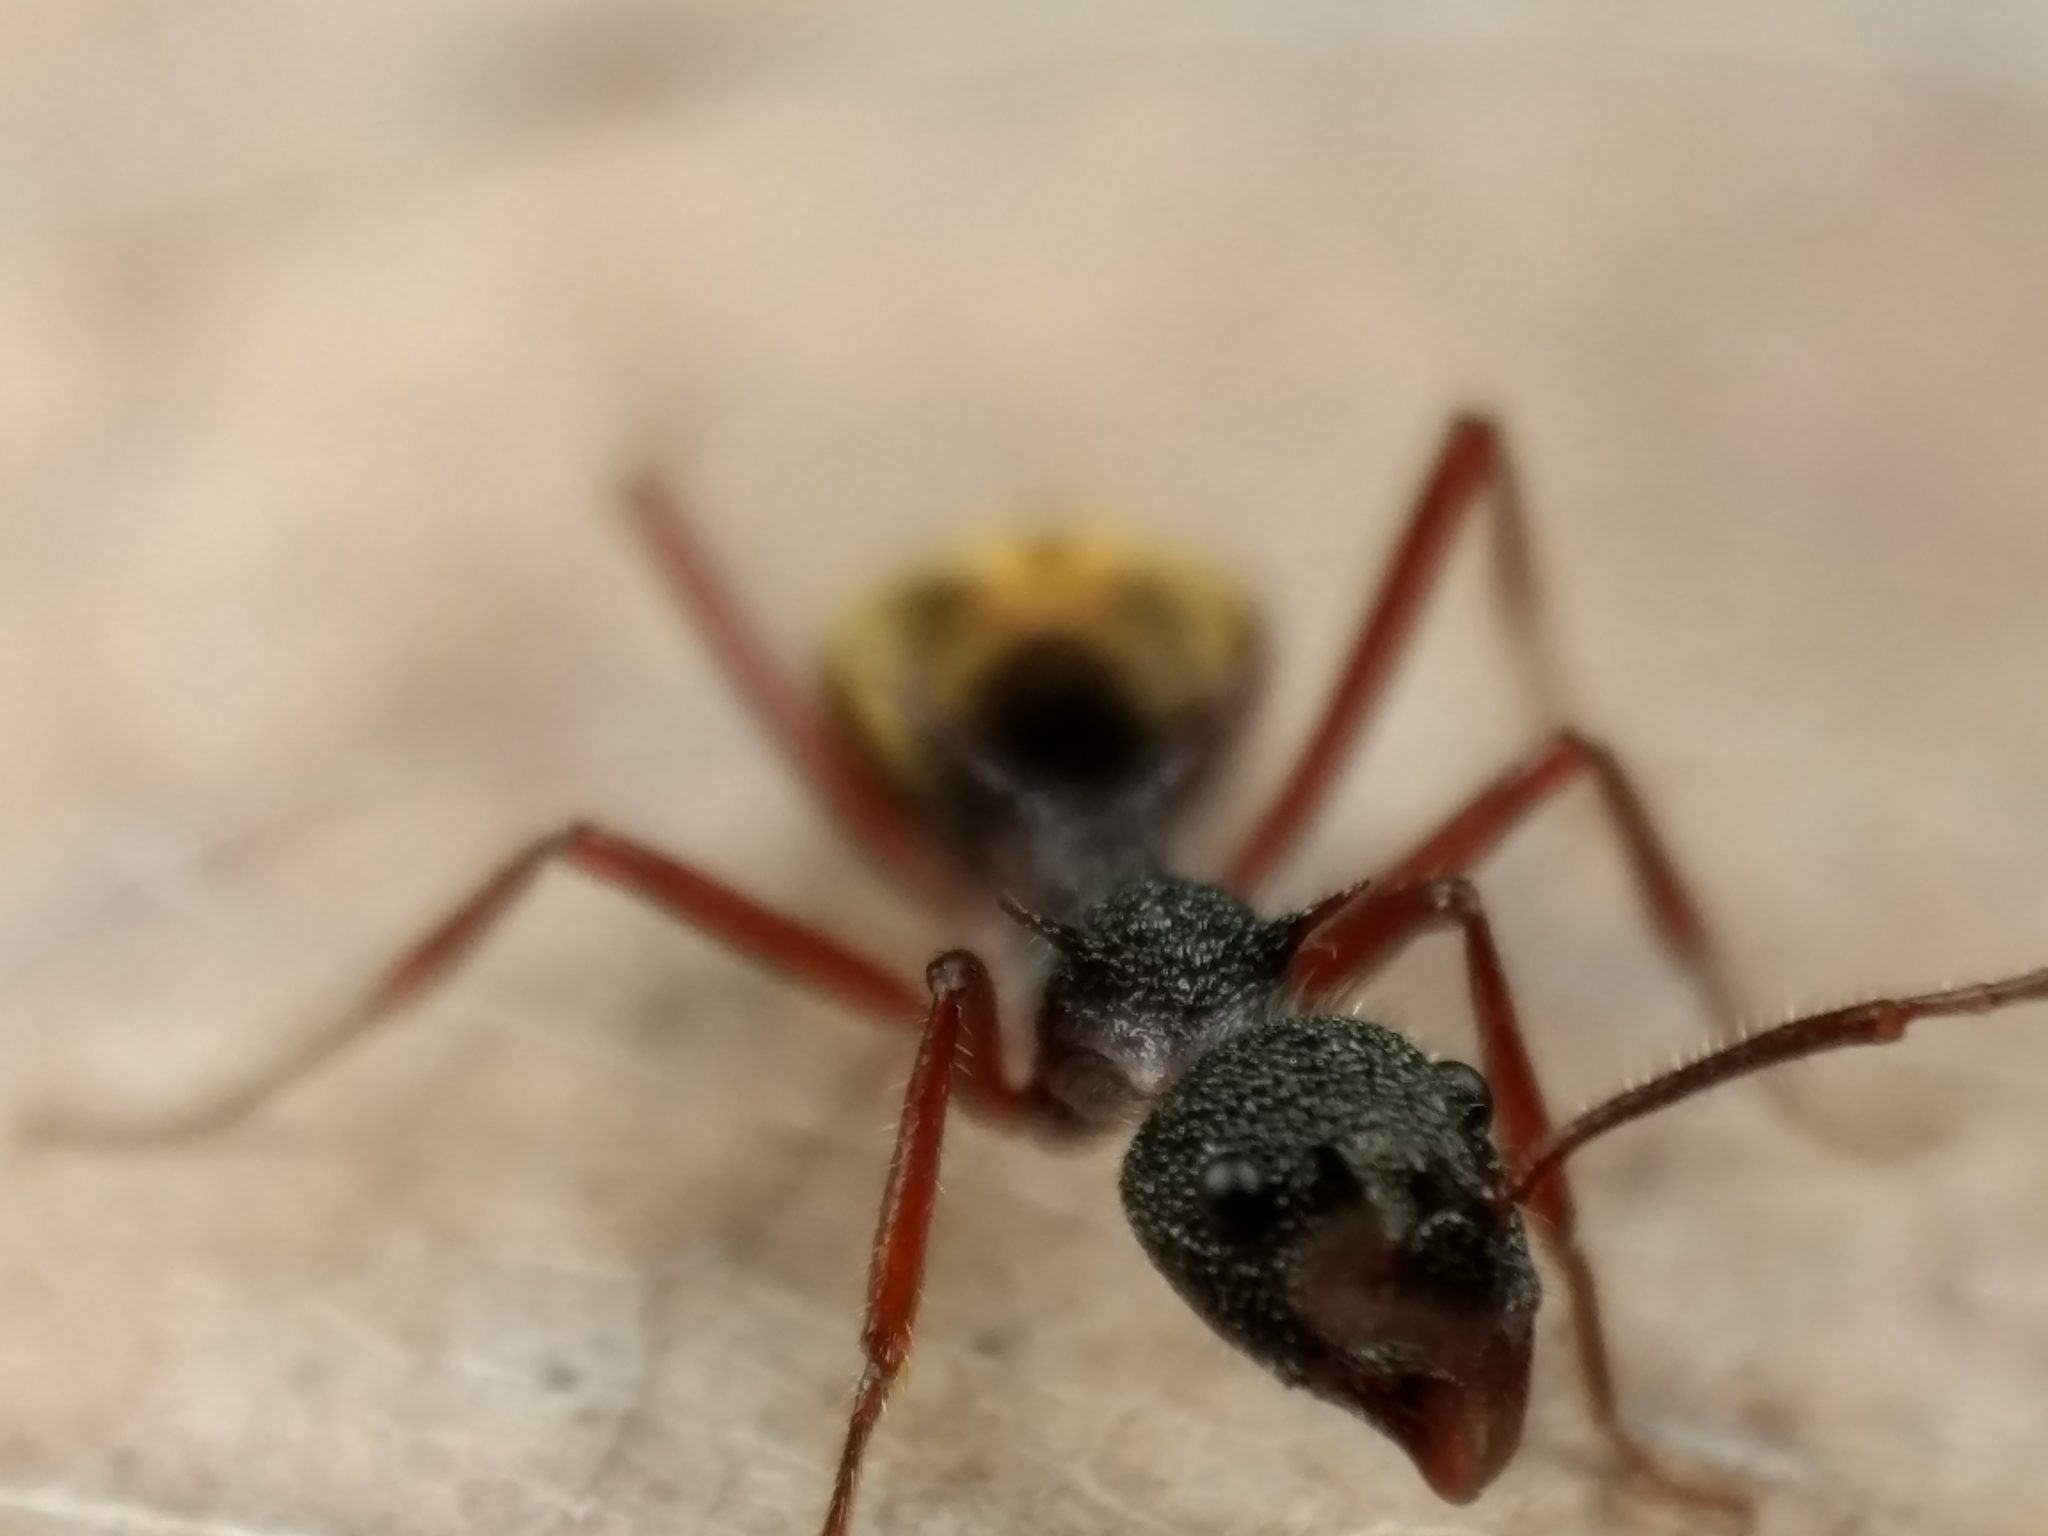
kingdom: Animalia
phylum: Arthropoda
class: Insecta
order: Hymenoptera
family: Formicidae
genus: Dolichoderus
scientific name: Dolichoderus extensispinus
